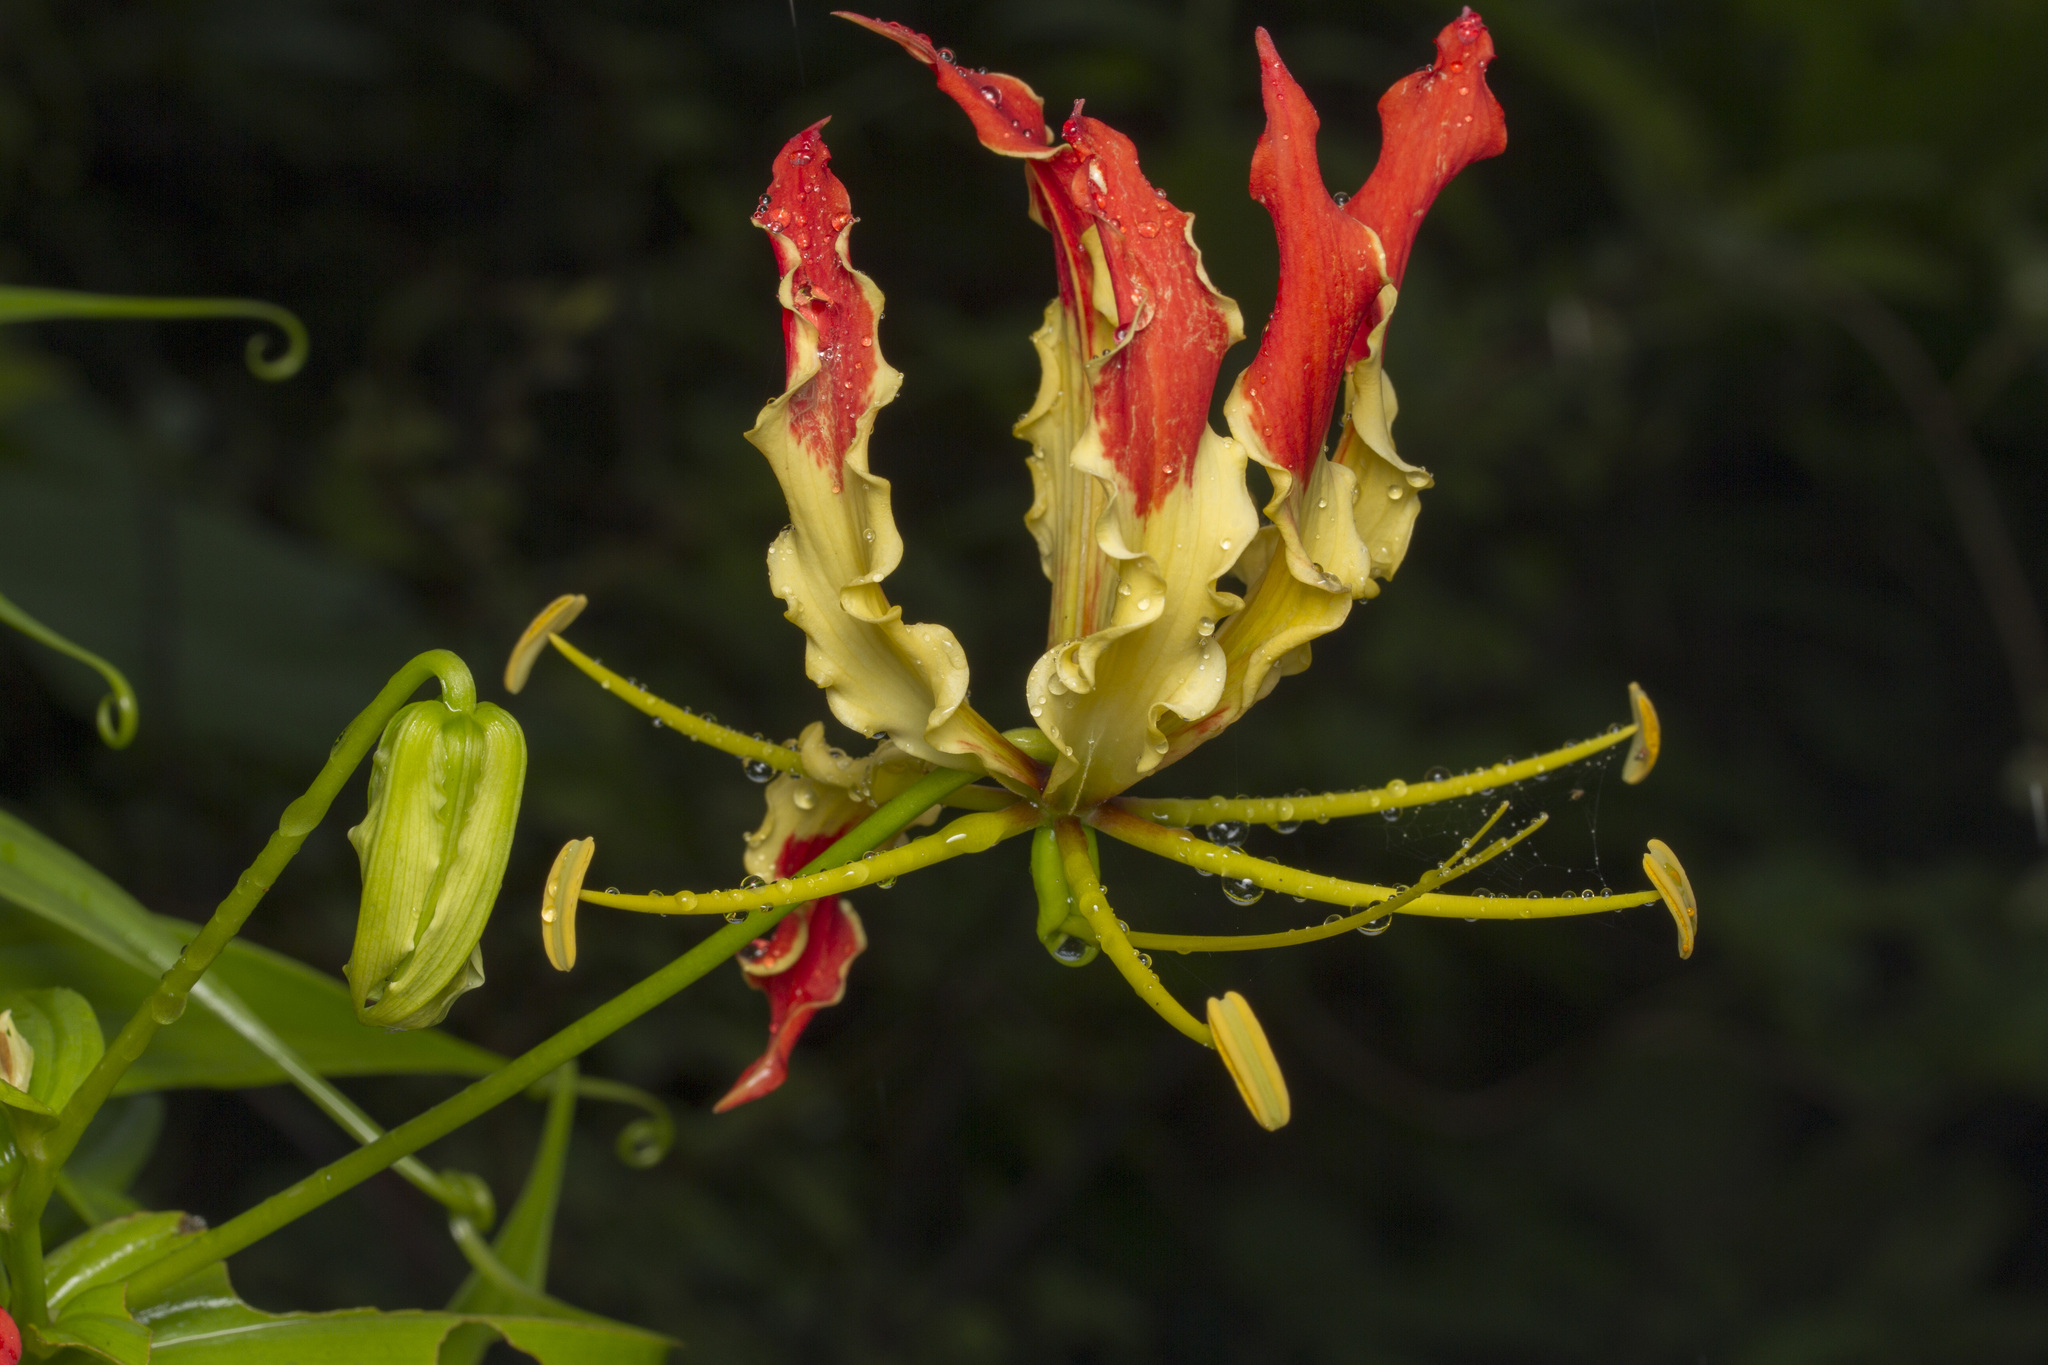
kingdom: Plantae
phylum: Tracheophyta
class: Liliopsida
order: Liliales
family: Colchicaceae
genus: Gloriosa
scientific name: Gloriosa superba
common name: Flame lily
